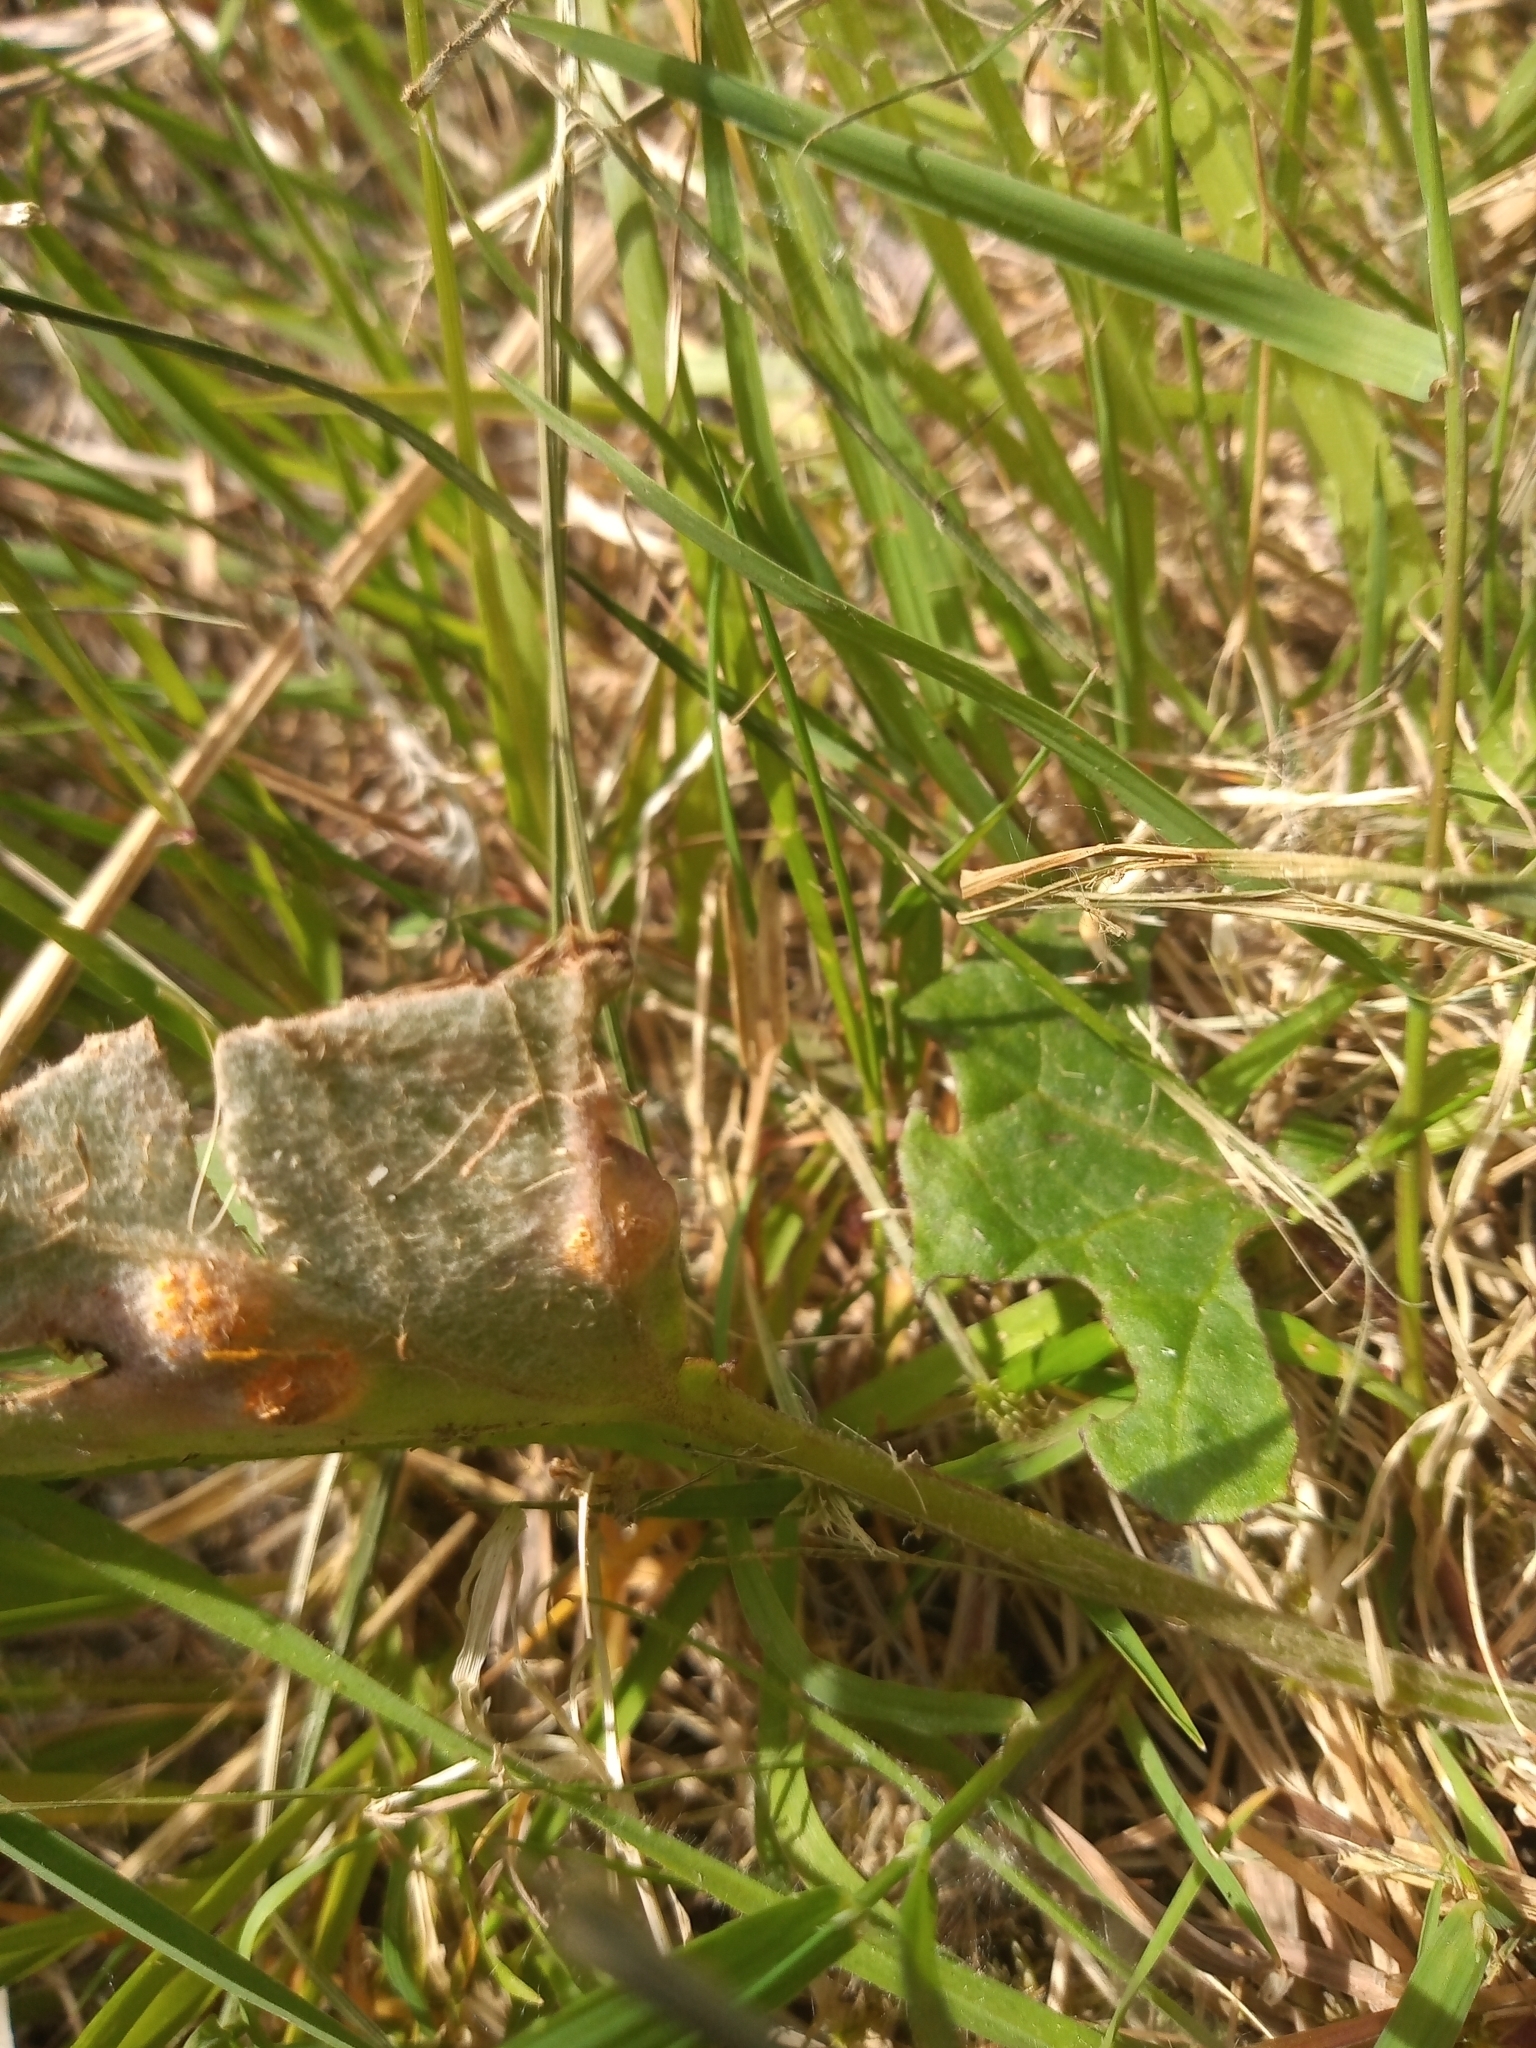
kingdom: Fungi
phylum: Basidiomycota
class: Pucciniomycetes
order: Pucciniales
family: Pucciniaceae
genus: Puccinia
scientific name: Puccinia
